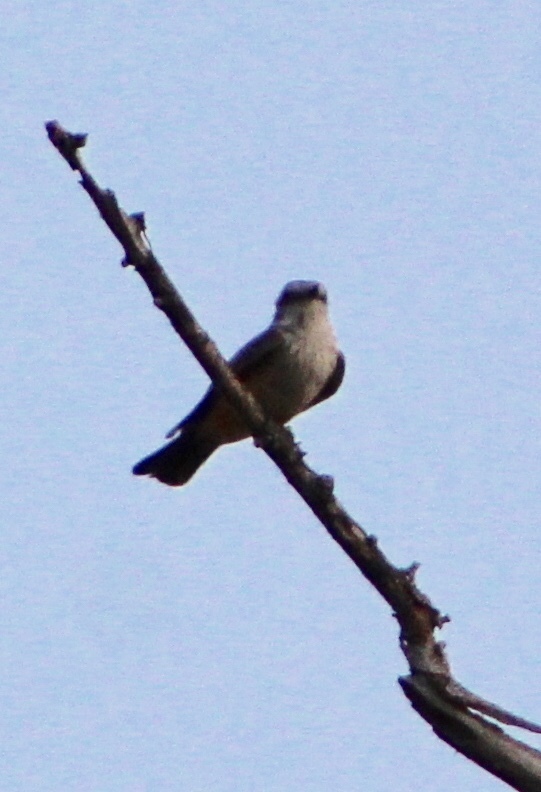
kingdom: Animalia
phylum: Chordata
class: Aves
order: Passeriformes
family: Tyrannidae
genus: Sayornis
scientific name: Sayornis saya
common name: Say's phoebe
